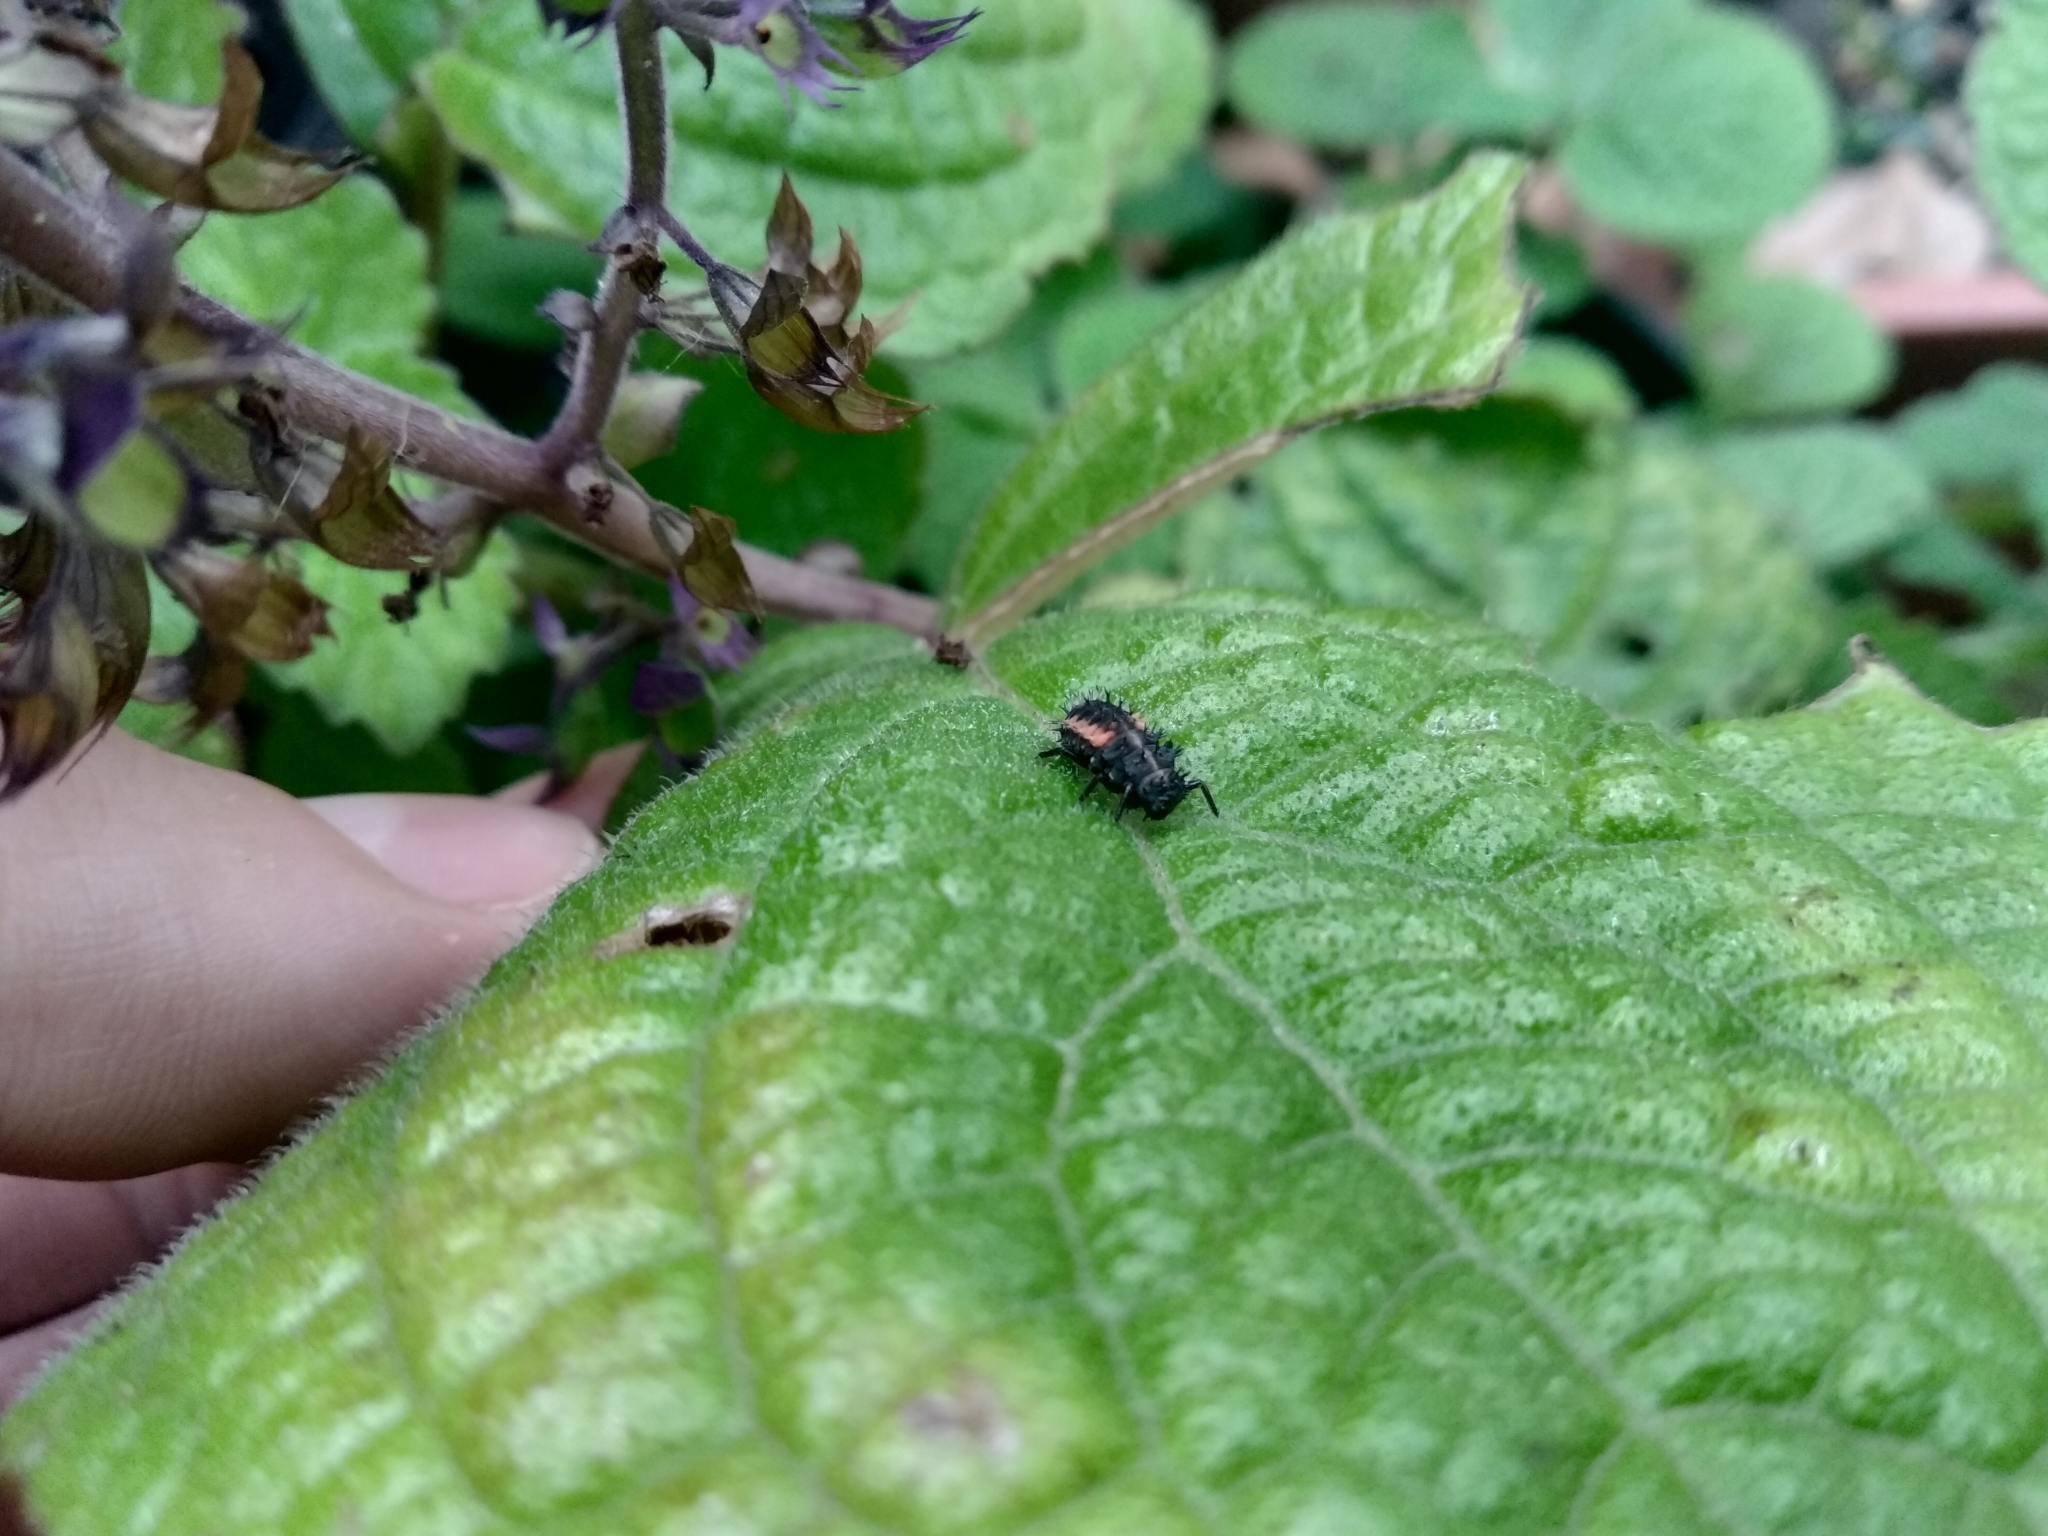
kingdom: Animalia
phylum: Arthropoda
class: Insecta
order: Coleoptera
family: Coccinellidae
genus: Harmonia
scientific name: Harmonia axyridis
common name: Harlequin ladybird
